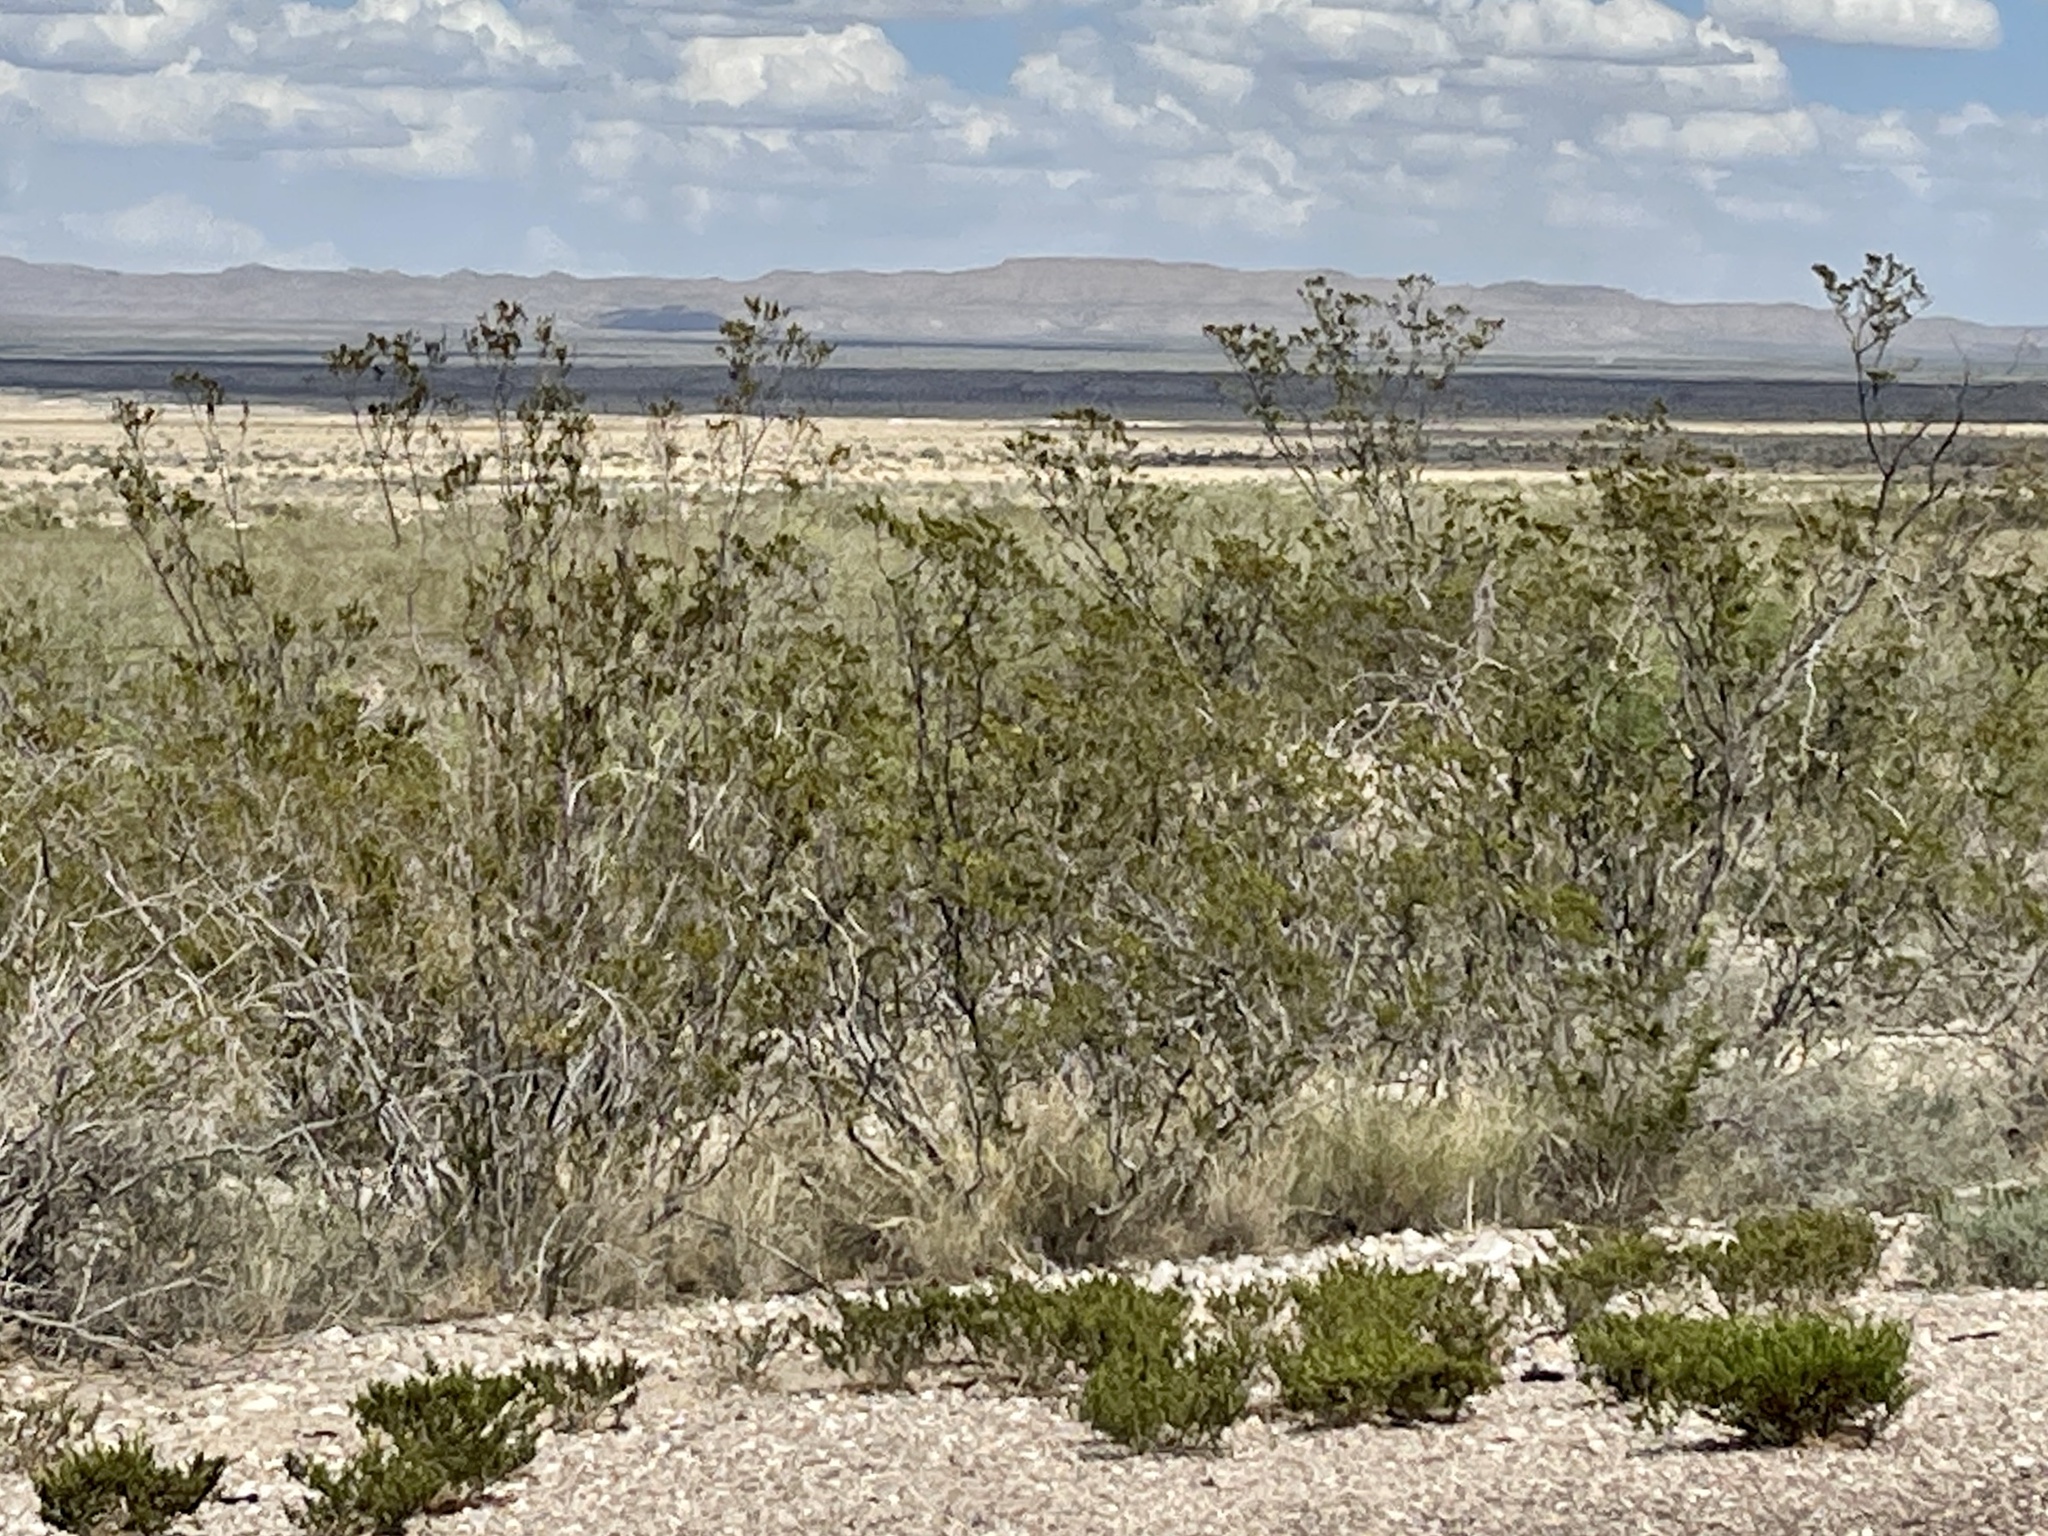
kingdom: Plantae
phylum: Tracheophyta
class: Magnoliopsida
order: Zygophyllales
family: Zygophyllaceae
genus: Larrea
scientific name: Larrea tridentata
